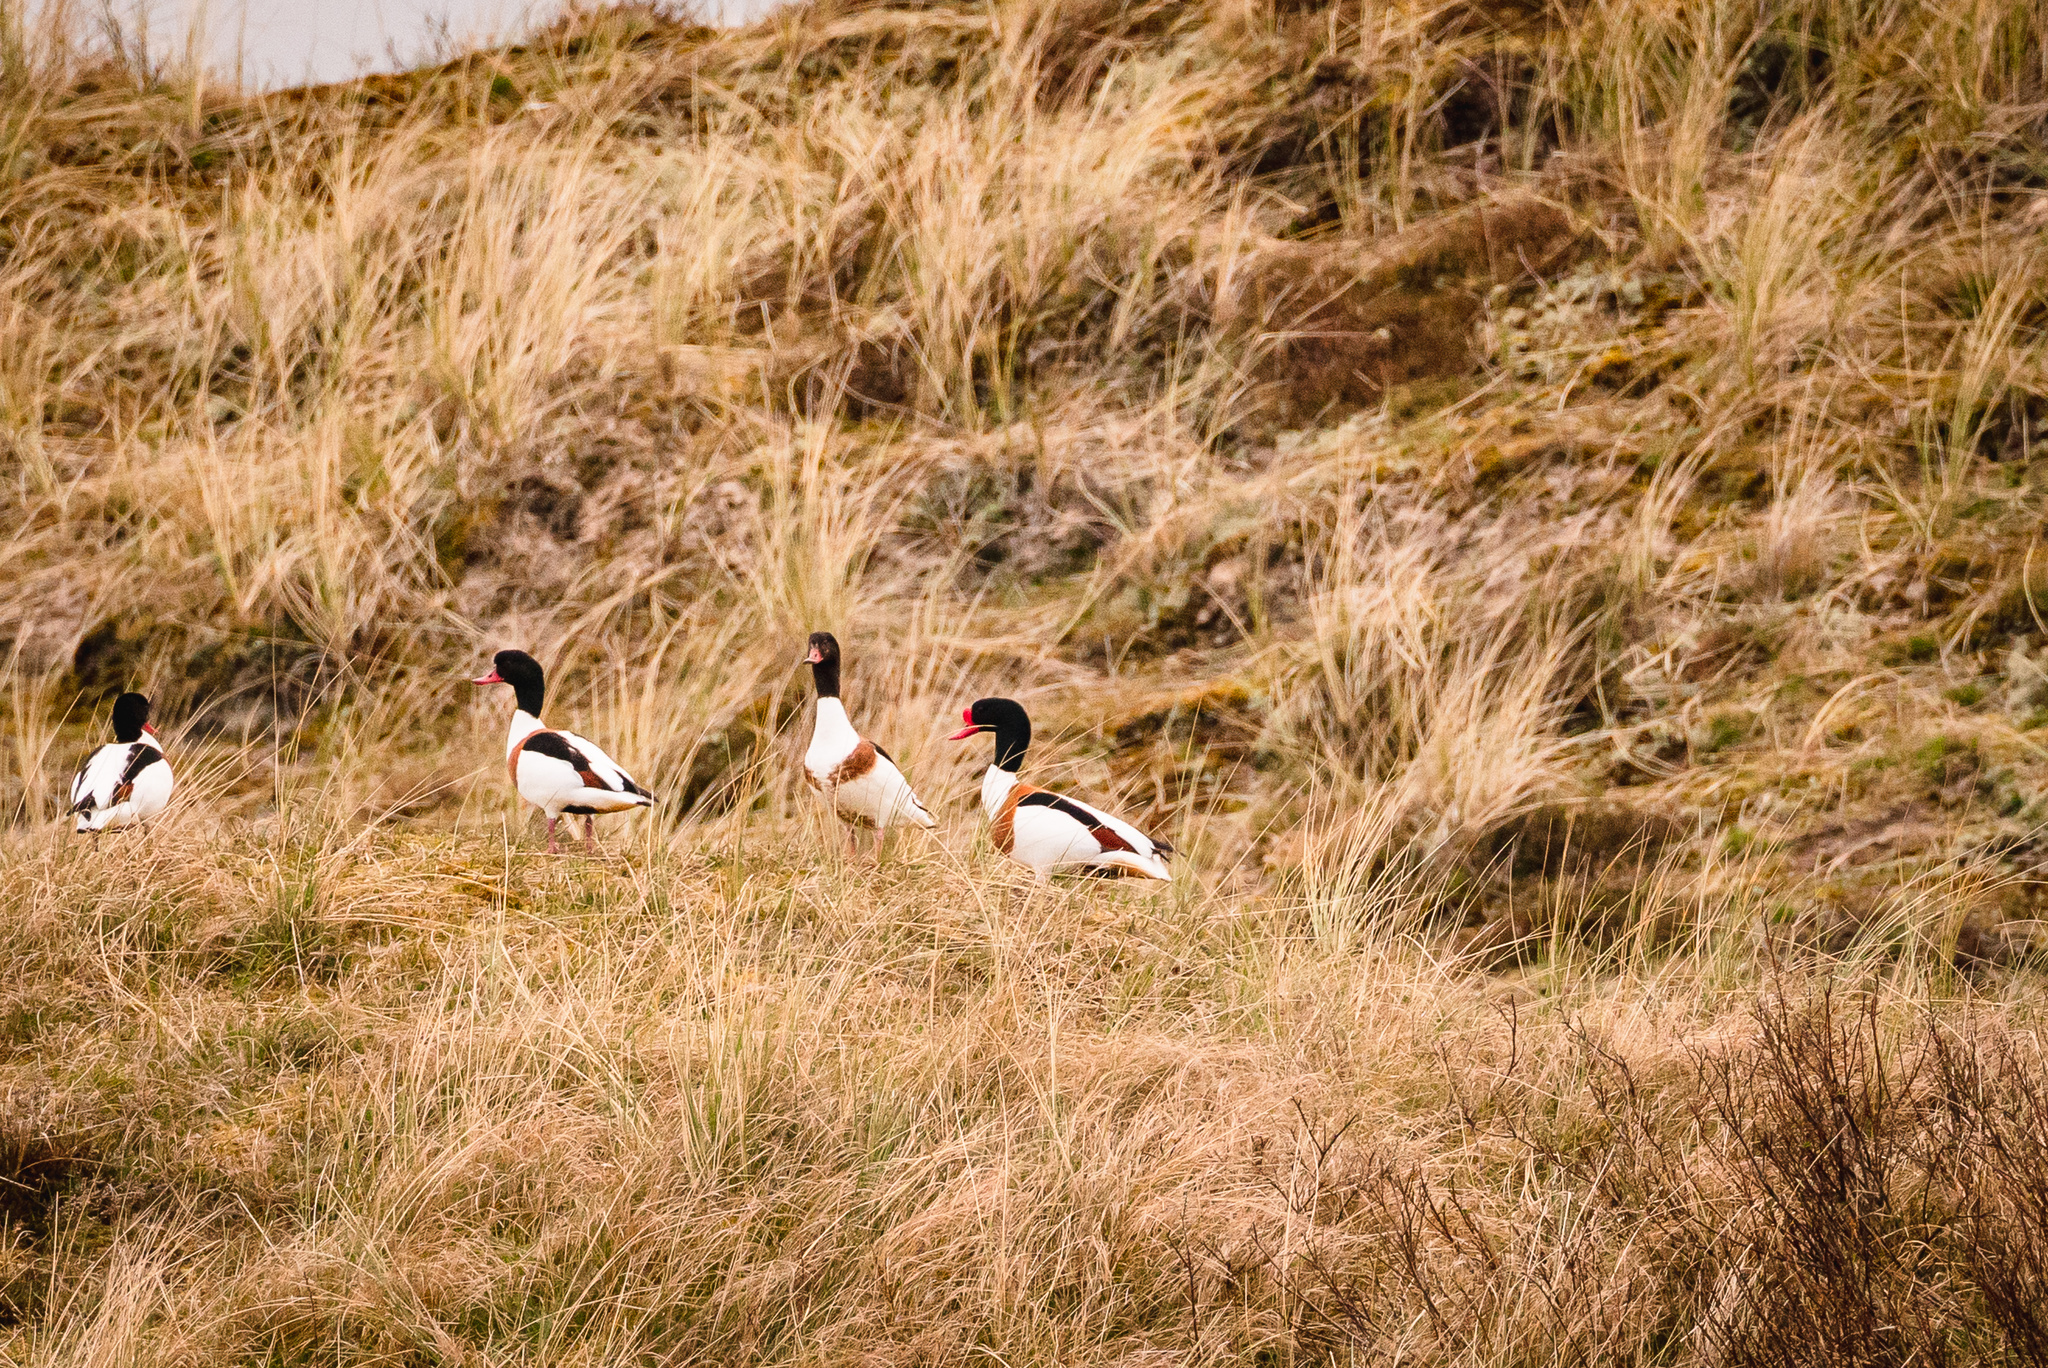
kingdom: Animalia
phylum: Chordata
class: Aves
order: Anseriformes
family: Anatidae
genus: Tadorna
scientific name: Tadorna tadorna
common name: Common shelduck
